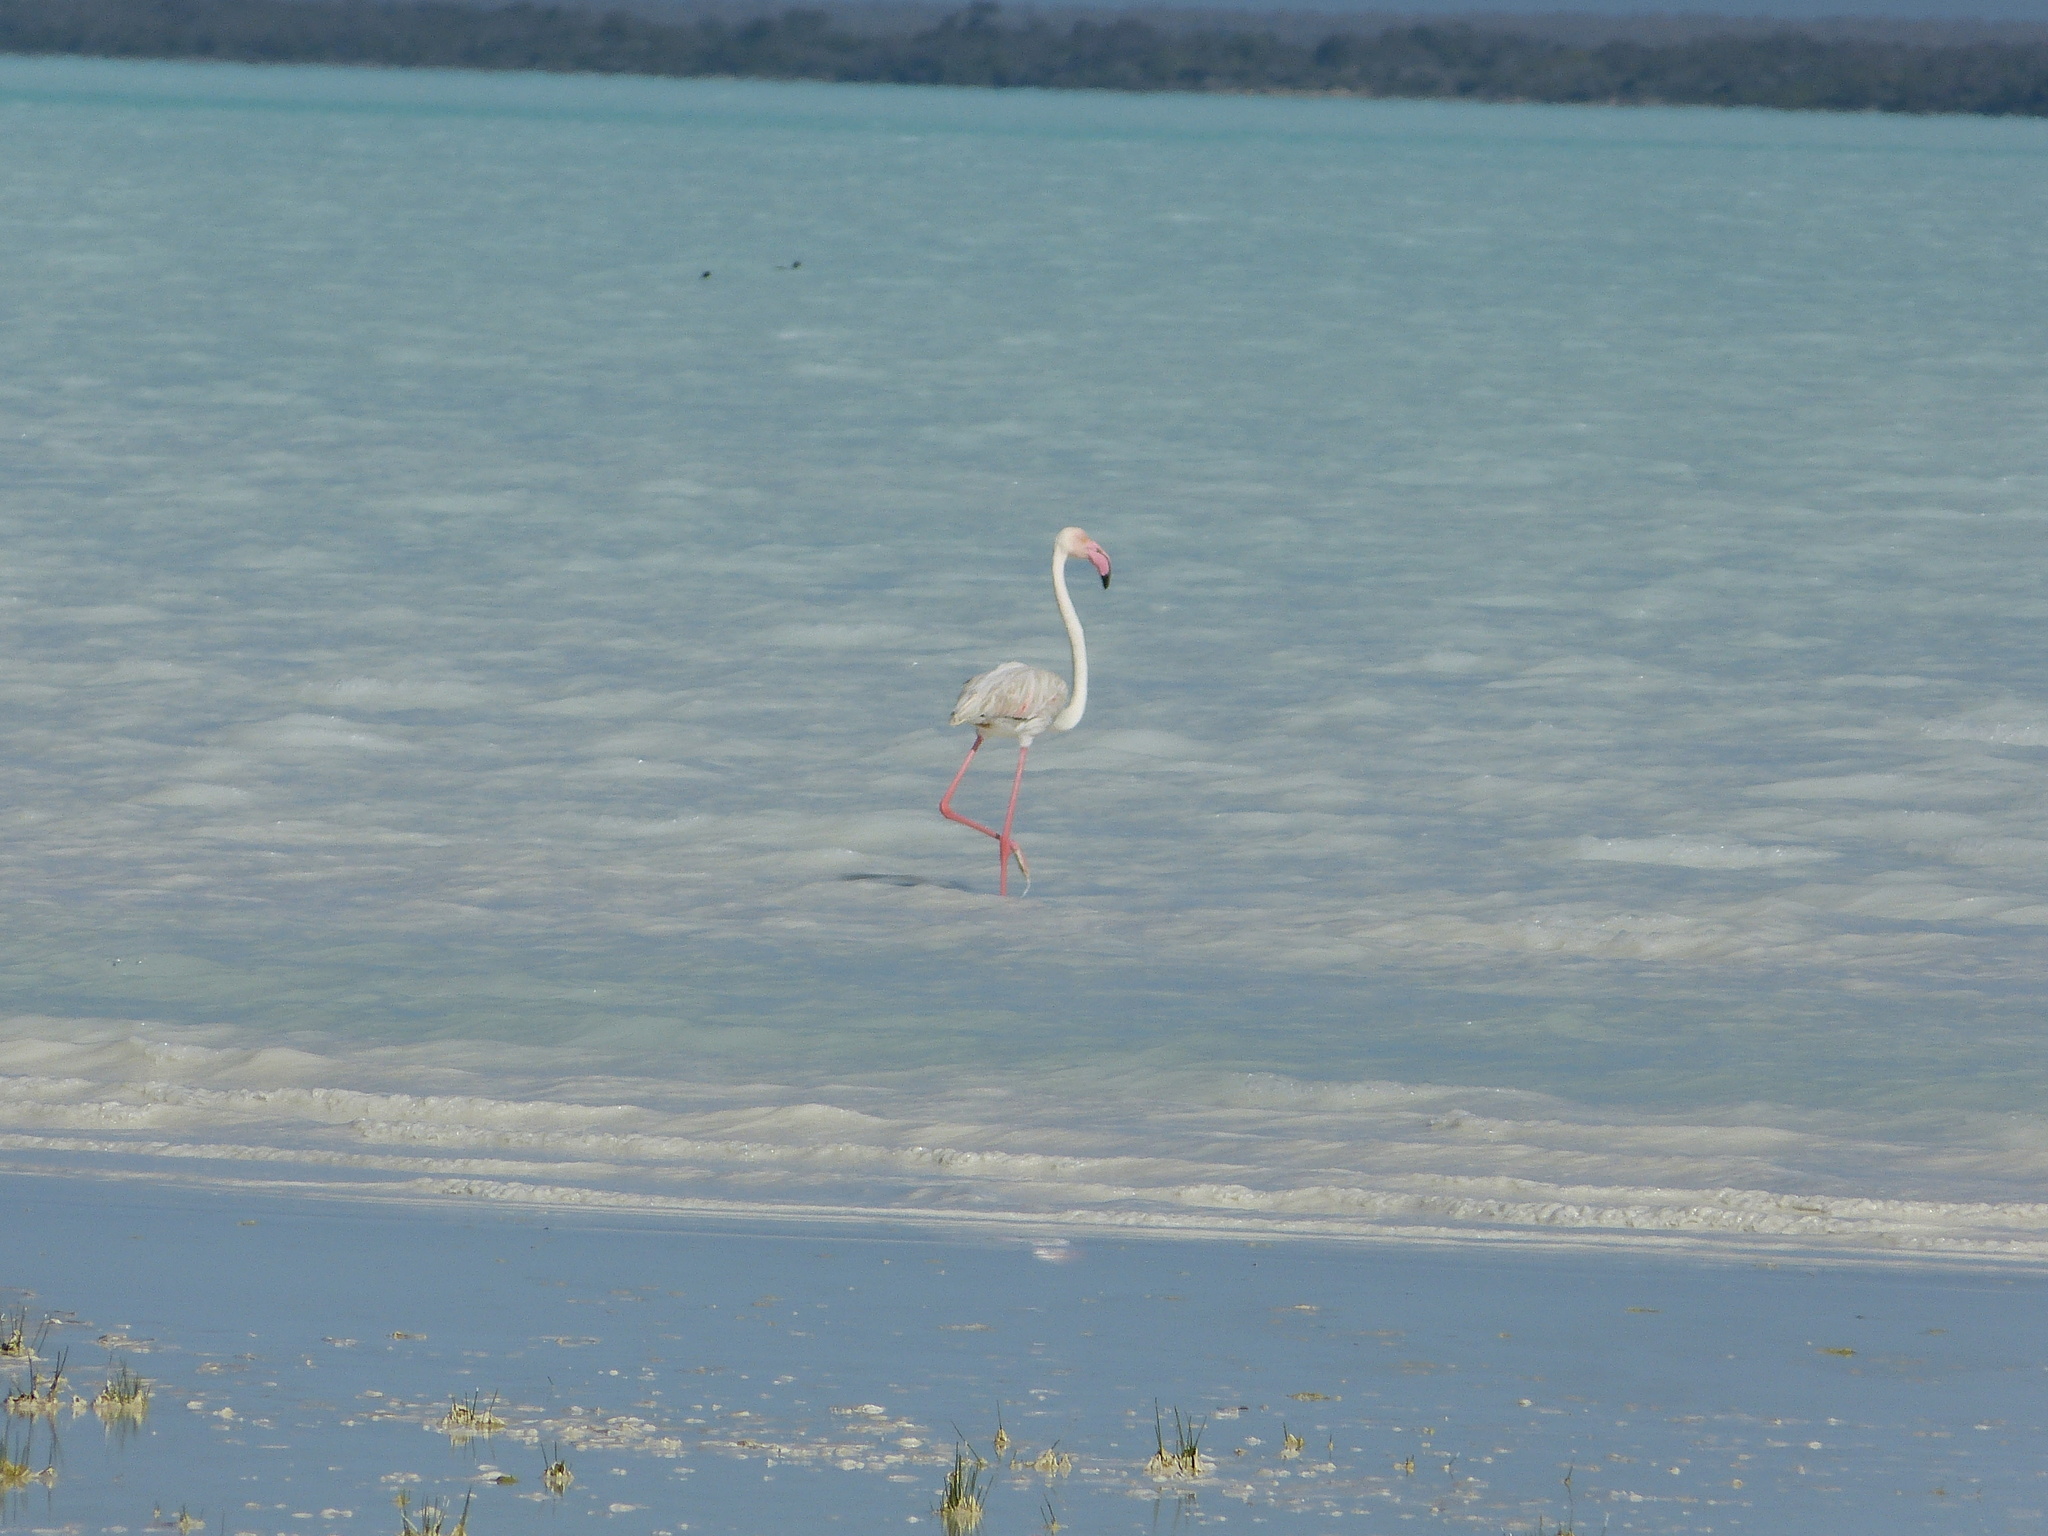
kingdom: Animalia
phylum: Chordata
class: Aves
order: Phoenicopteriformes
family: Phoenicopteridae
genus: Phoenicopterus
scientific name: Phoenicopterus roseus
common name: Greater flamingo
